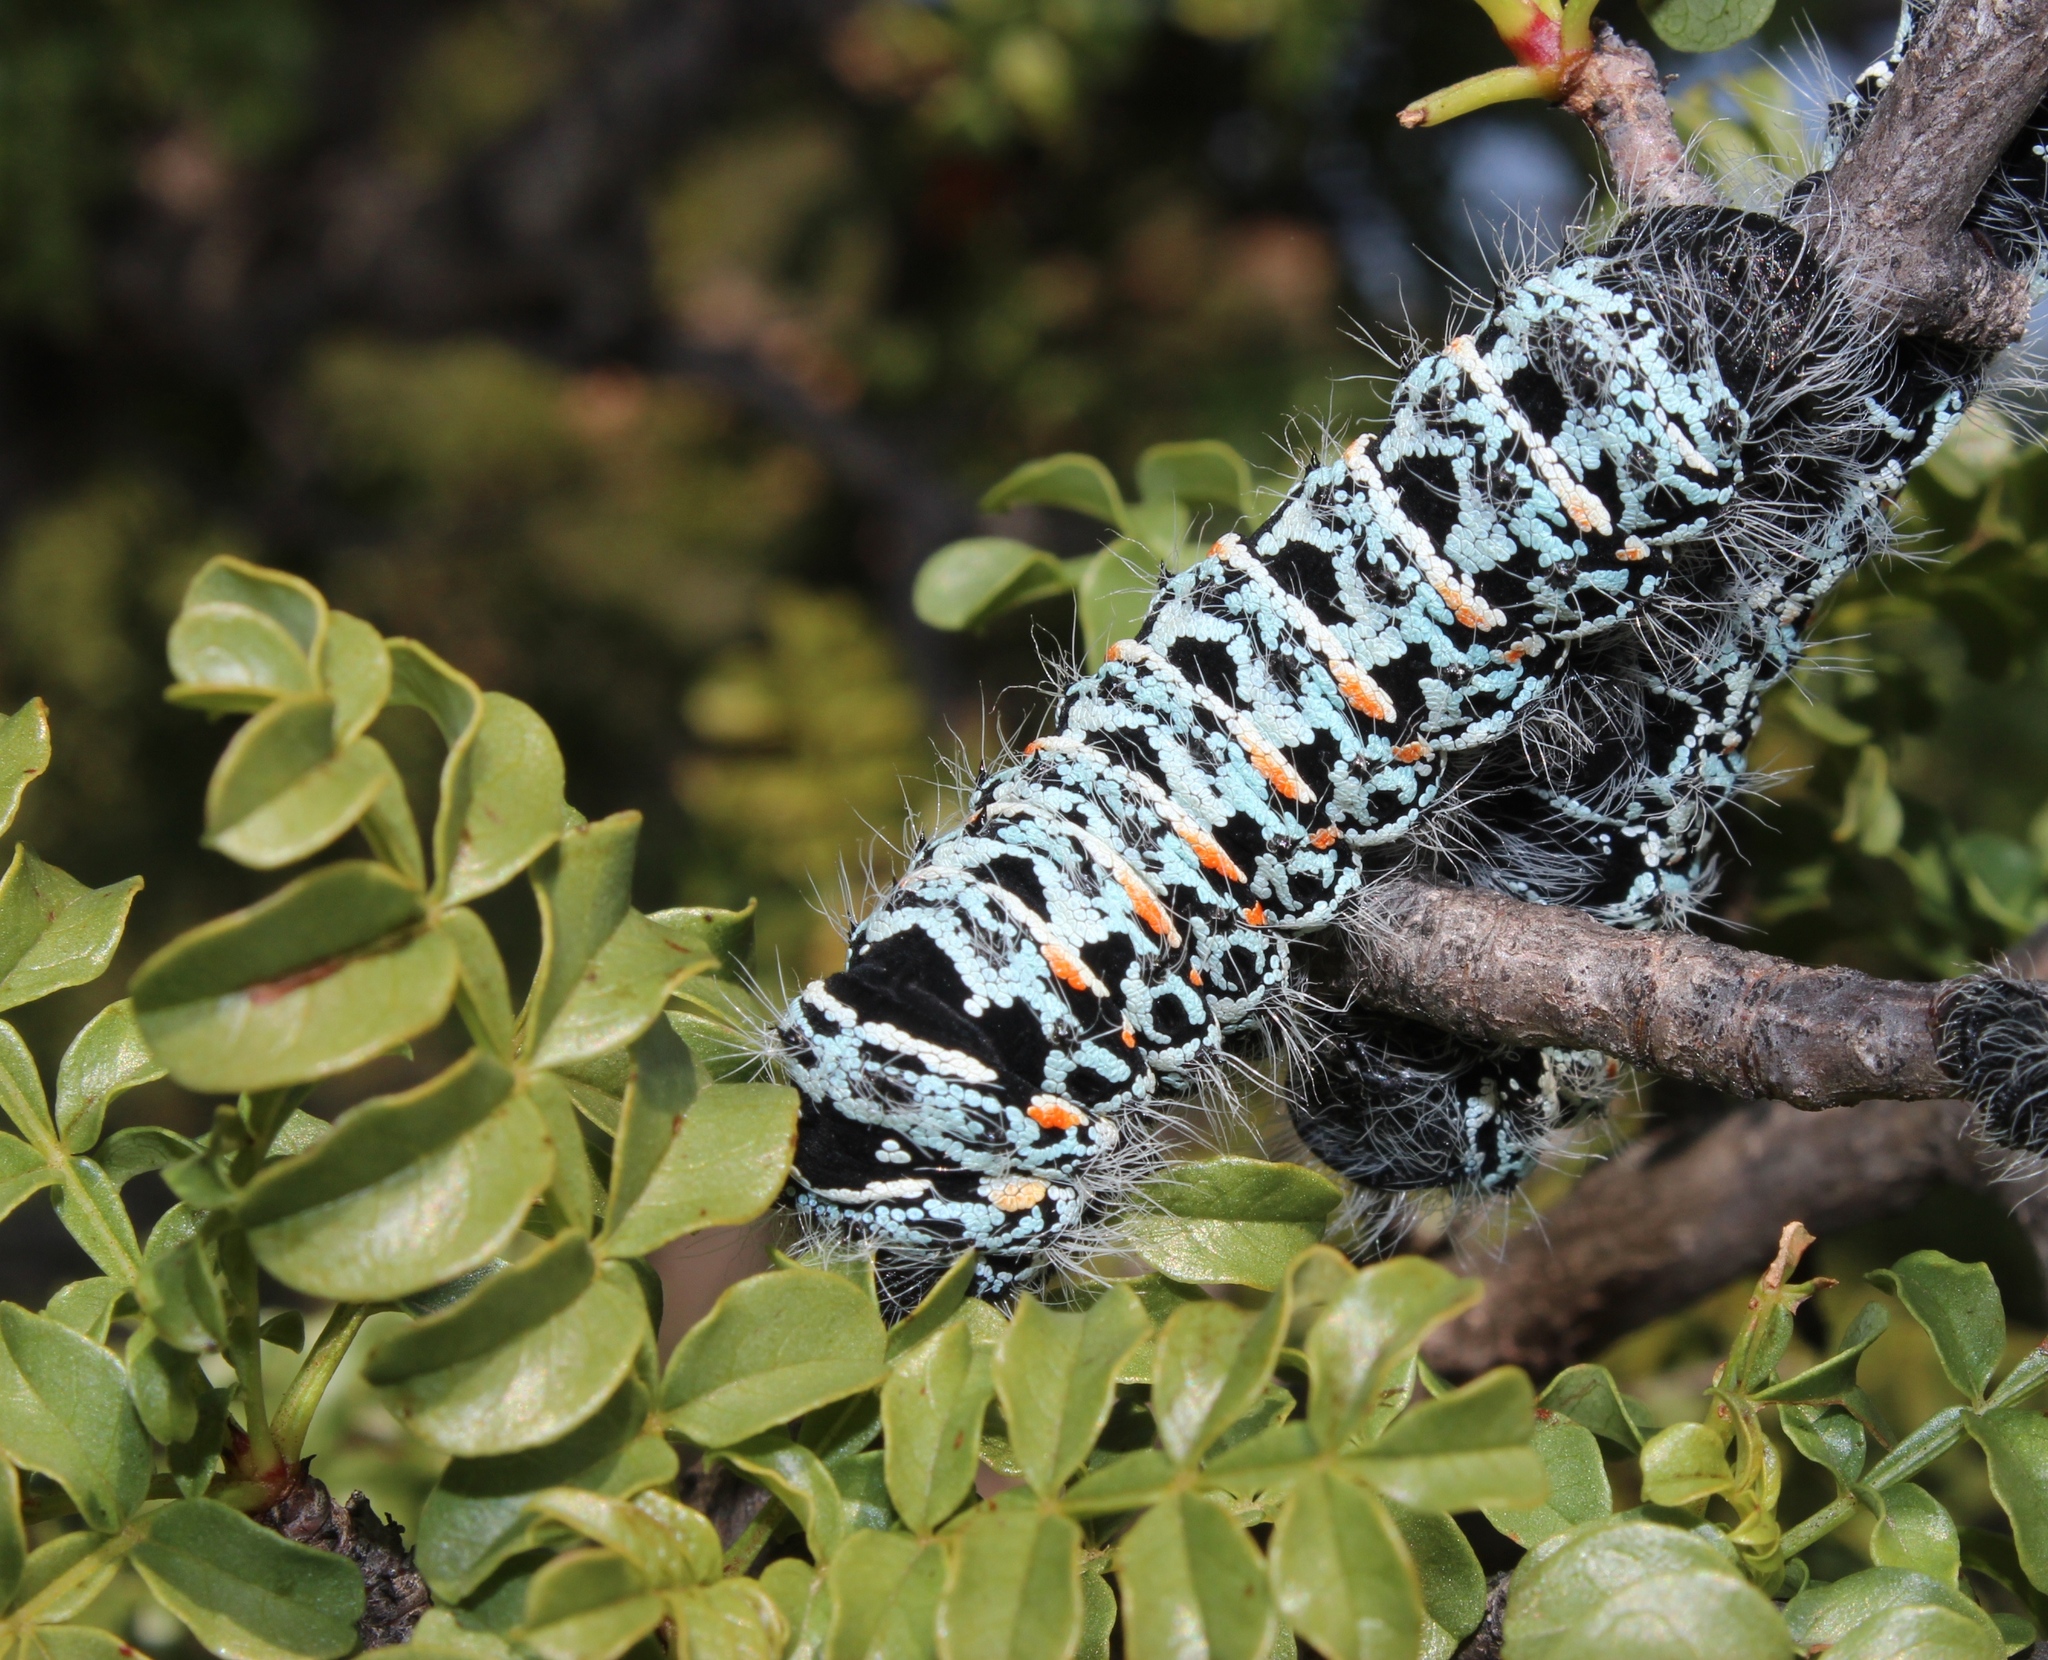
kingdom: Animalia
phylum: Arthropoda
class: Insecta
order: Lepidoptera
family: Saturniidae
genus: Gonimbrasia
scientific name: Gonimbrasia tyrrhea
